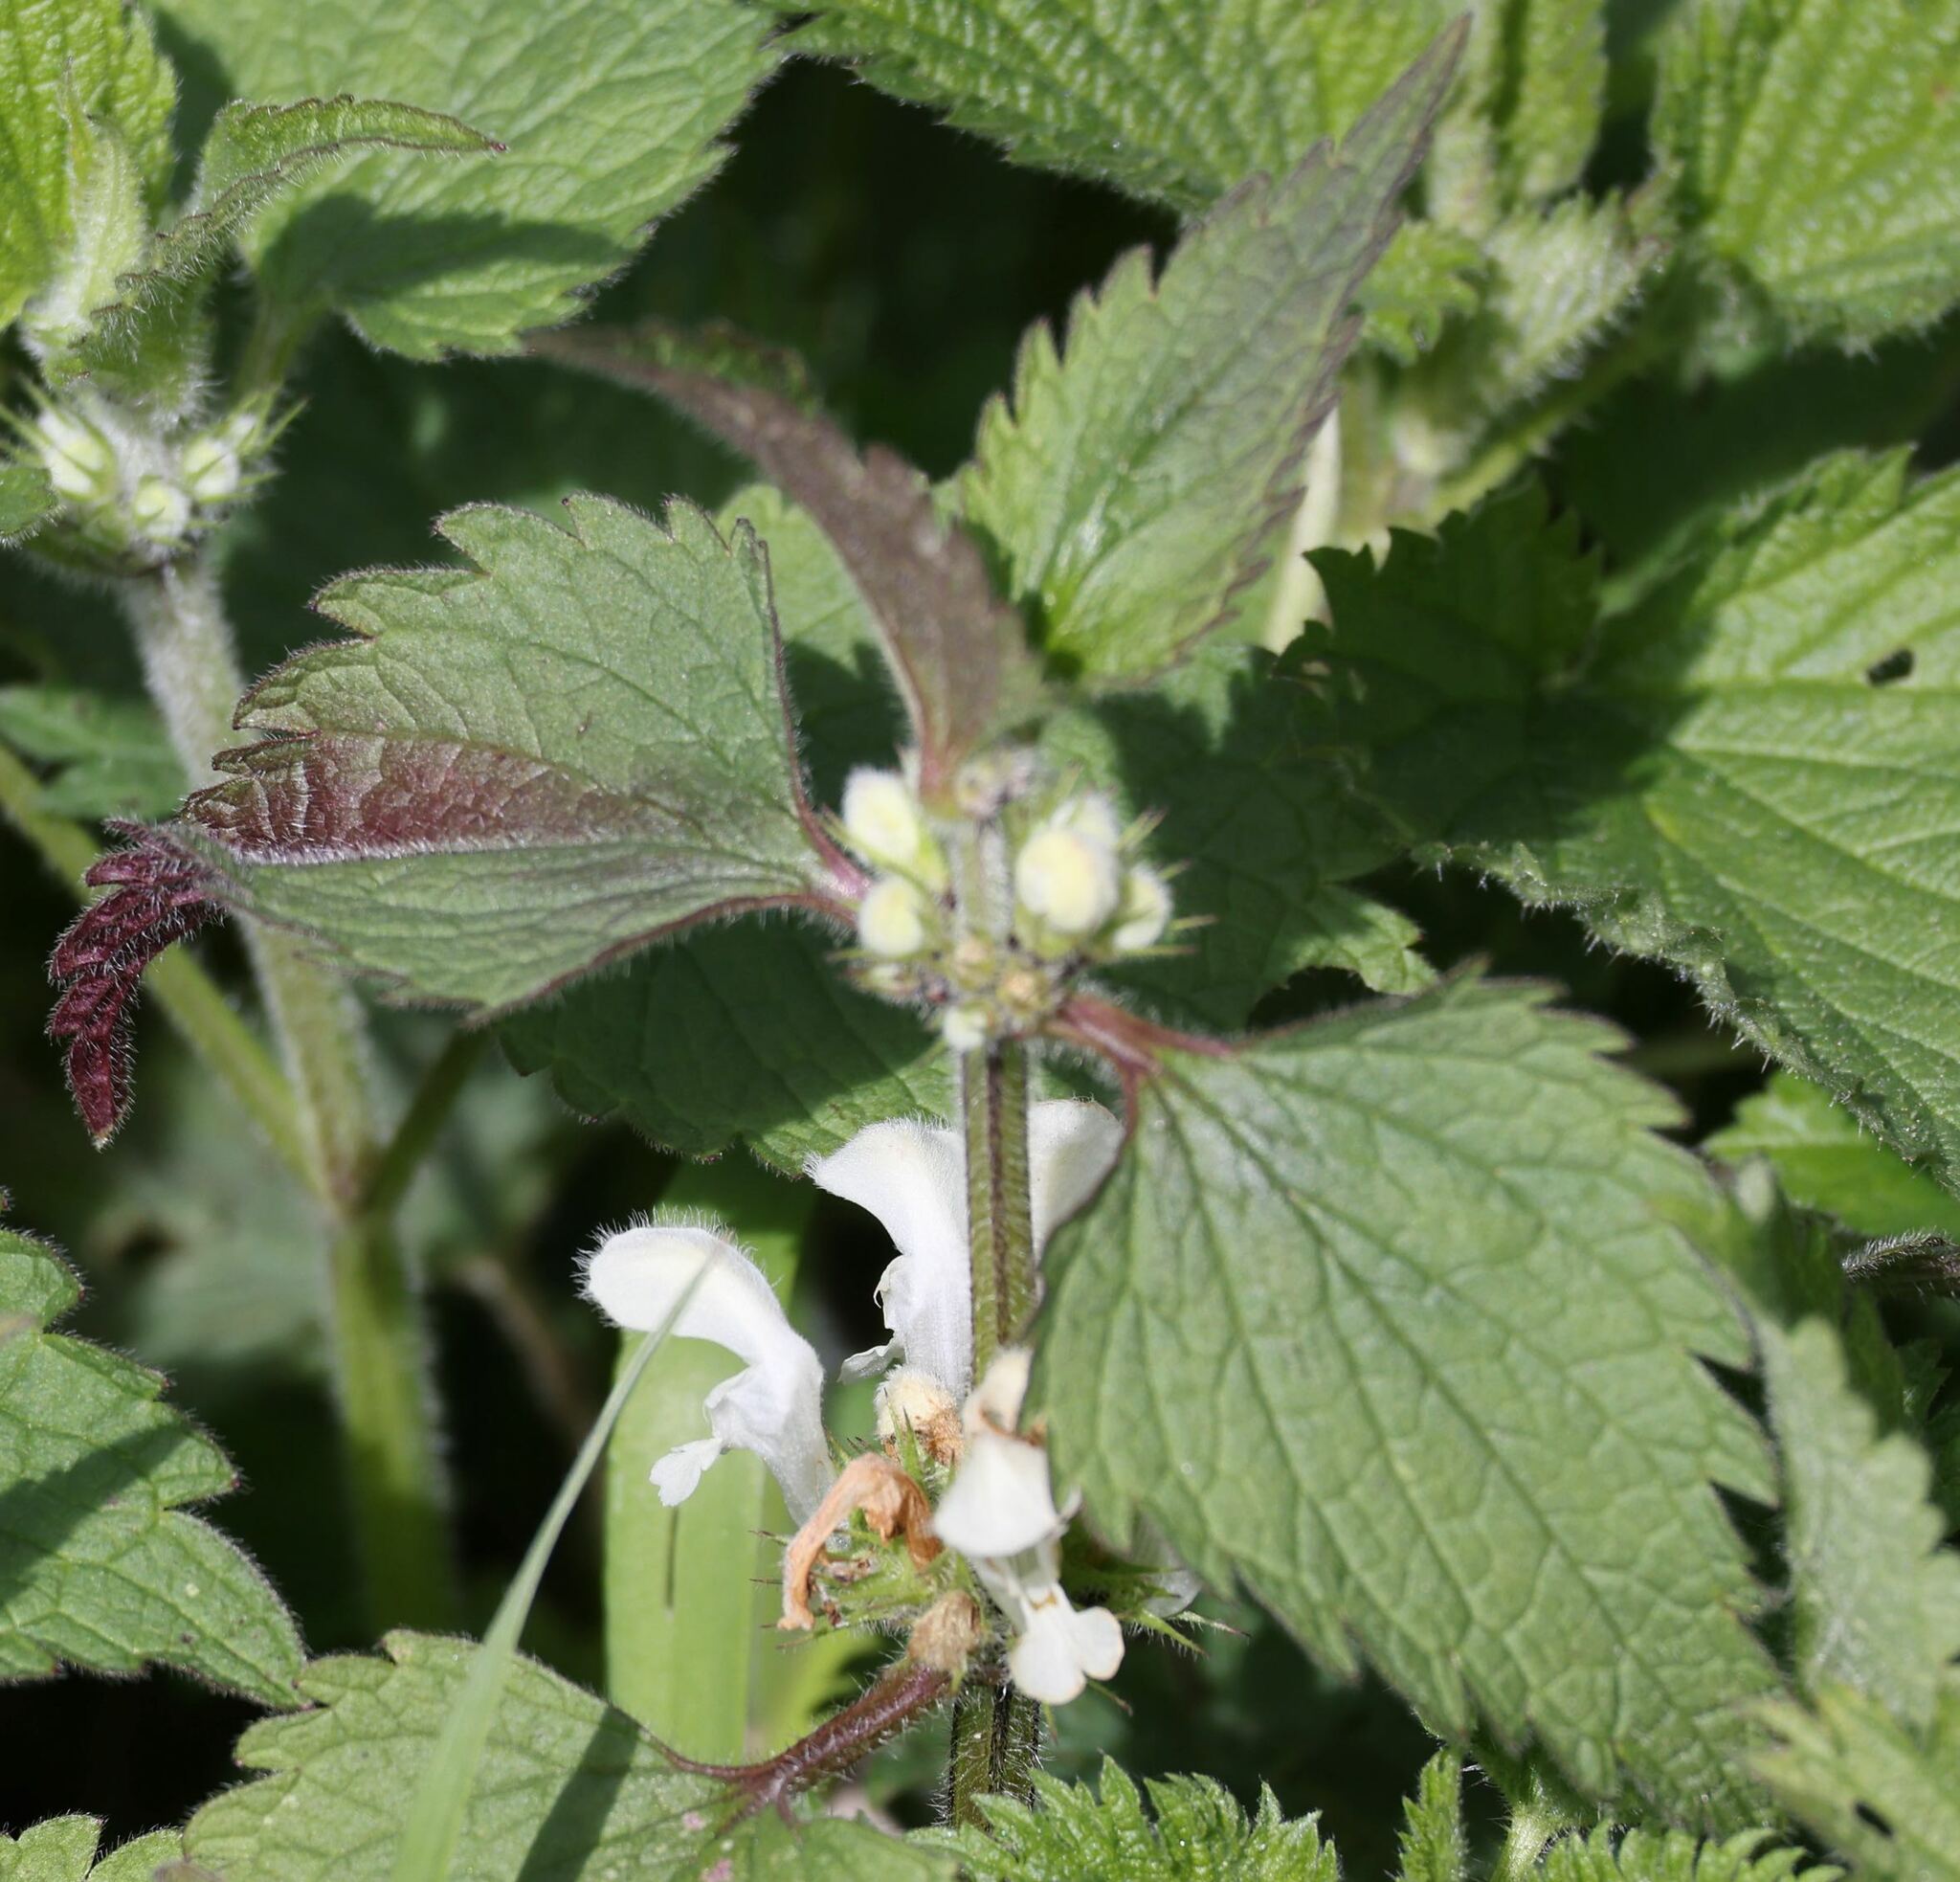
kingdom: Plantae
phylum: Tracheophyta
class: Magnoliopsida
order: Lamiales
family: Lamiaceae
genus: Lamium
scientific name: Lamium album
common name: White dead-nettle
